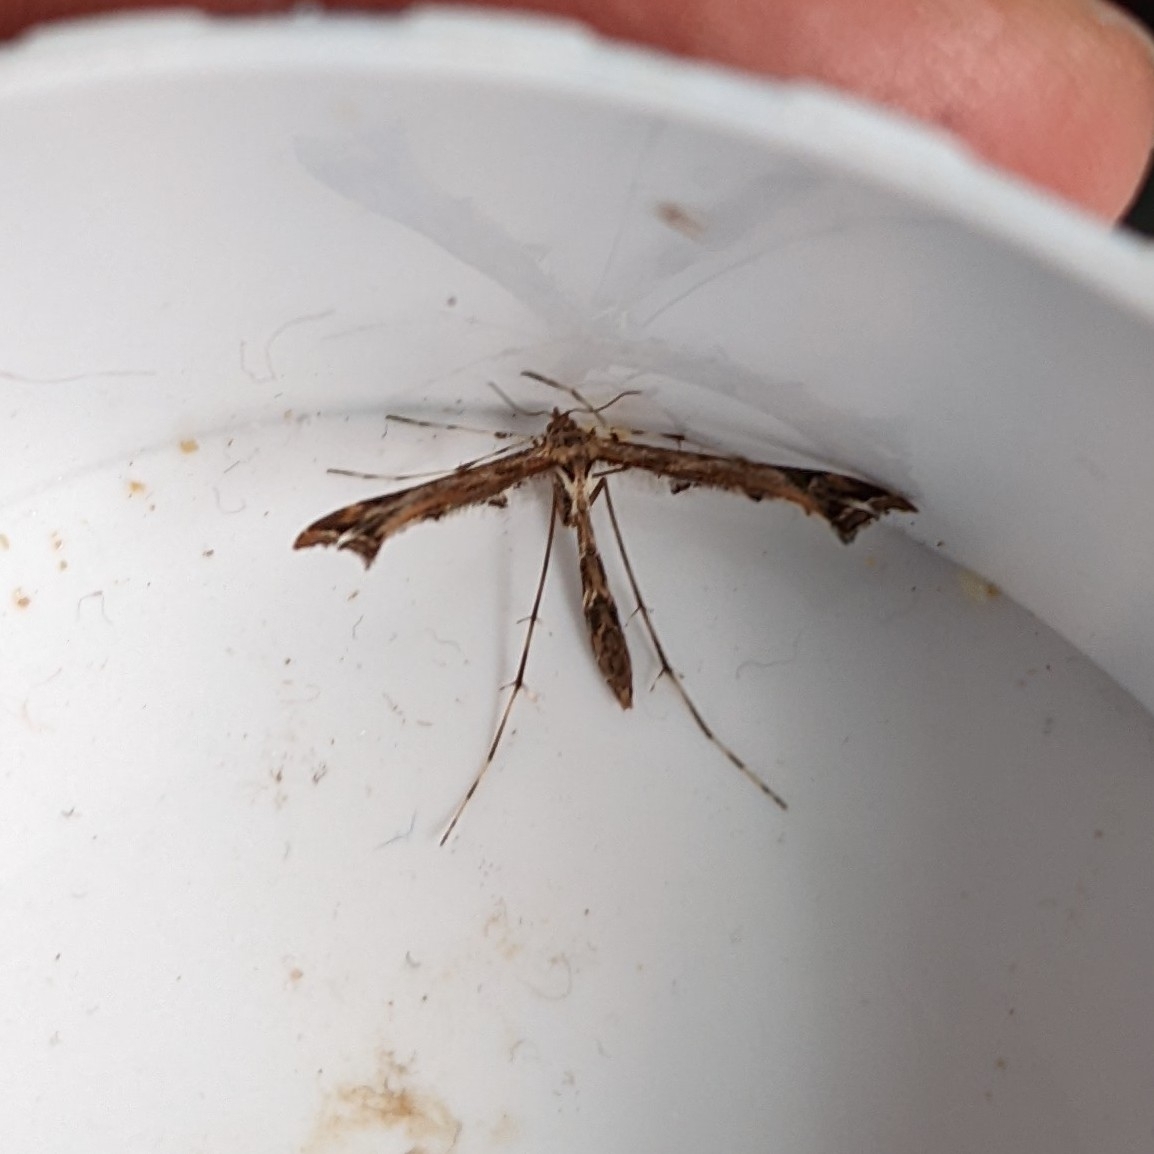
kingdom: Animalia
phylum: Arthropoda
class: Insecta
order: Lepidoptera
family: Pterophoridae
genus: Amblyptilia
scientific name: Amblyptilia acanthadactyla
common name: Beautiful plume
